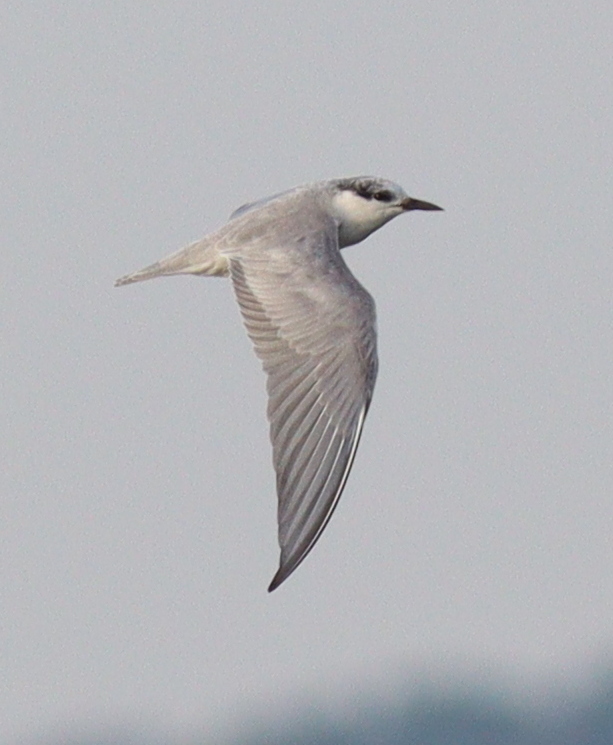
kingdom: Animalia
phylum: Chordata
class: Aves
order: Charadriiformes
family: Laridae
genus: Chlidonias
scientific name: Chlidonias hybrida
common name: Whiskered tern
